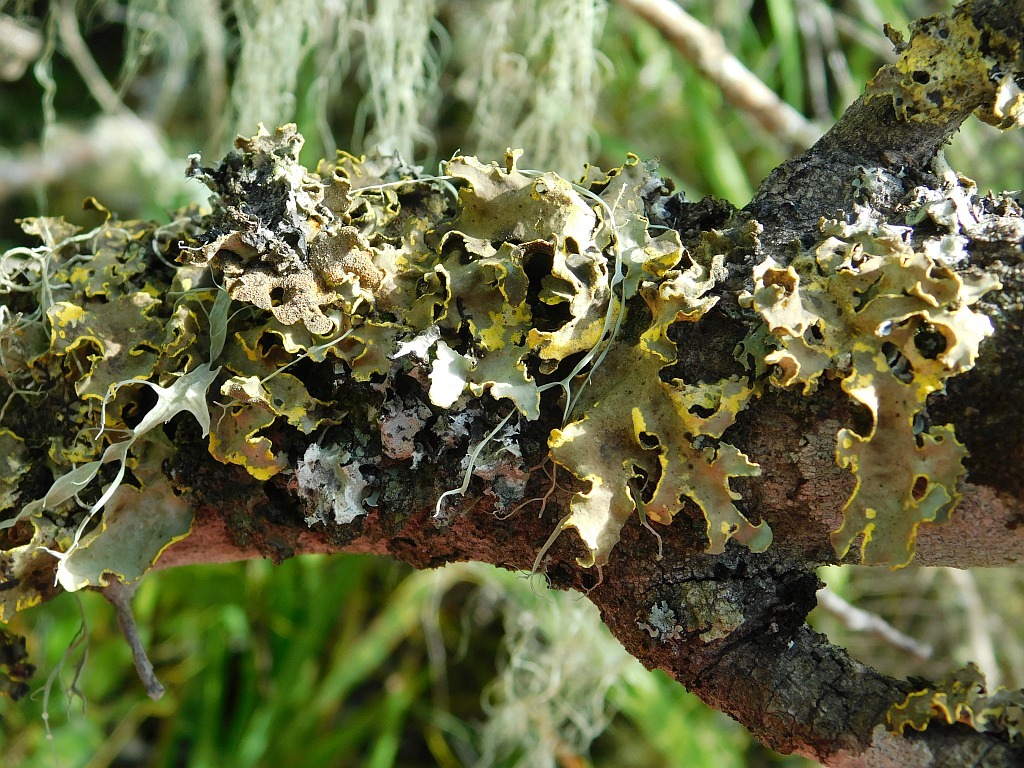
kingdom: Fungi
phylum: Ascomycota
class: Lecanoromycetes
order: Peltigerales
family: Lobariaceae
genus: Pseudocyphellaria
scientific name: Pseudocyphellaria aurata
